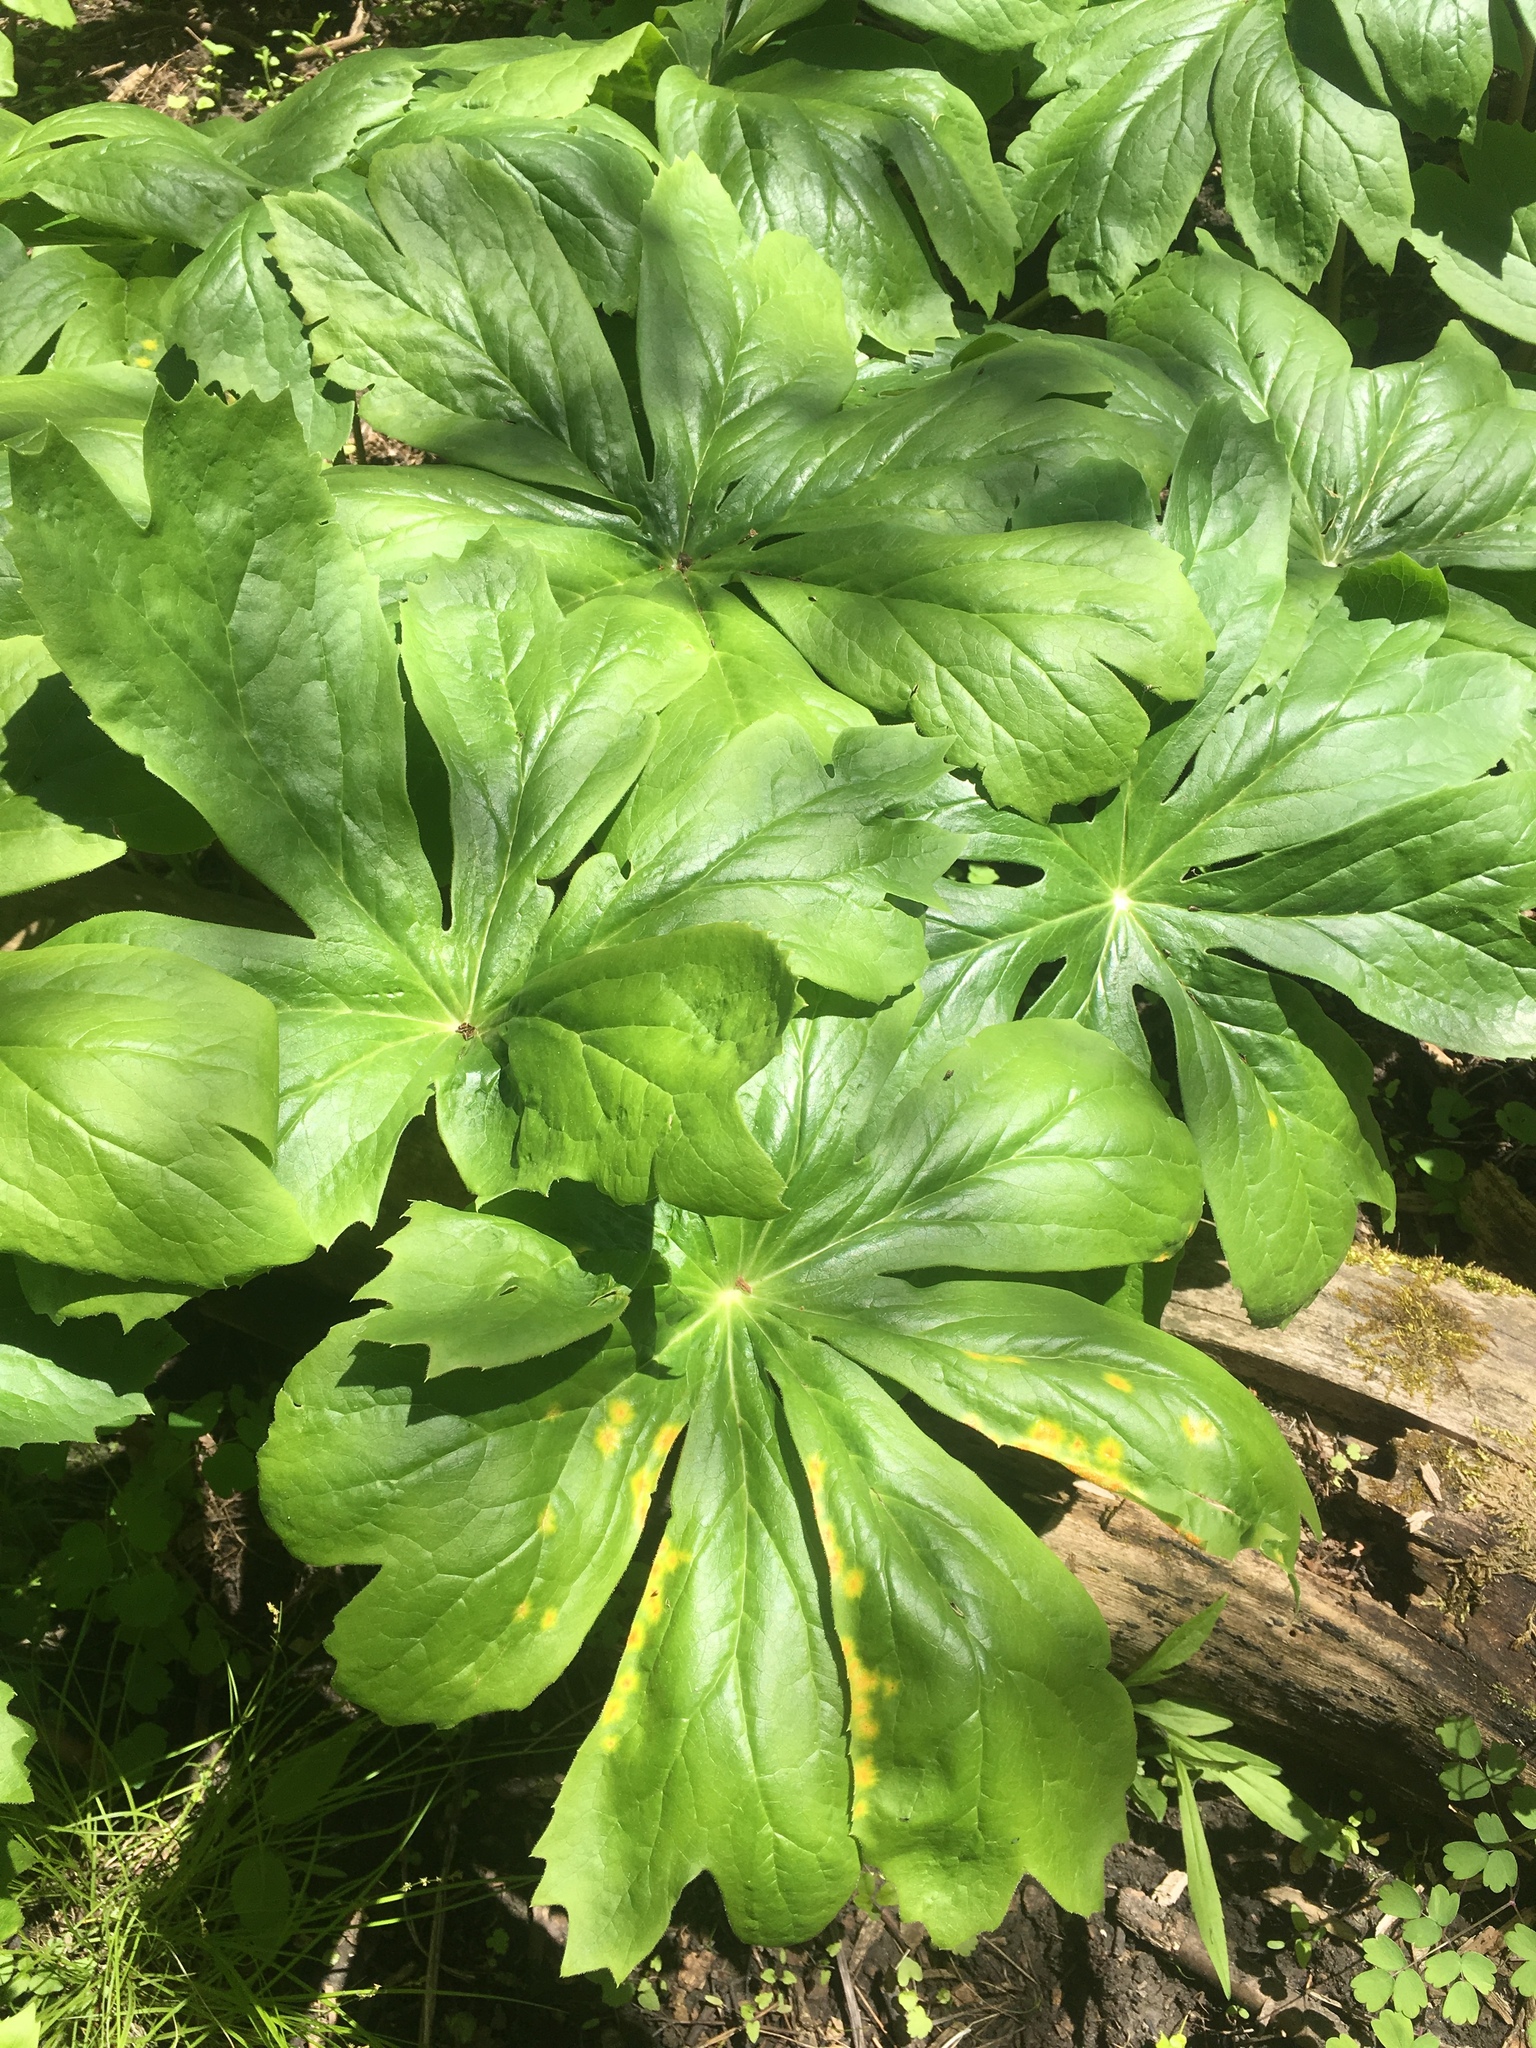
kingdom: Plantae
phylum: Tracheophyta
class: Magnoliopsida
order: Ranunculales
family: Berberidaceae
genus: Podophyllum
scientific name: Podophyllum peltatum
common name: Wild mandrake
